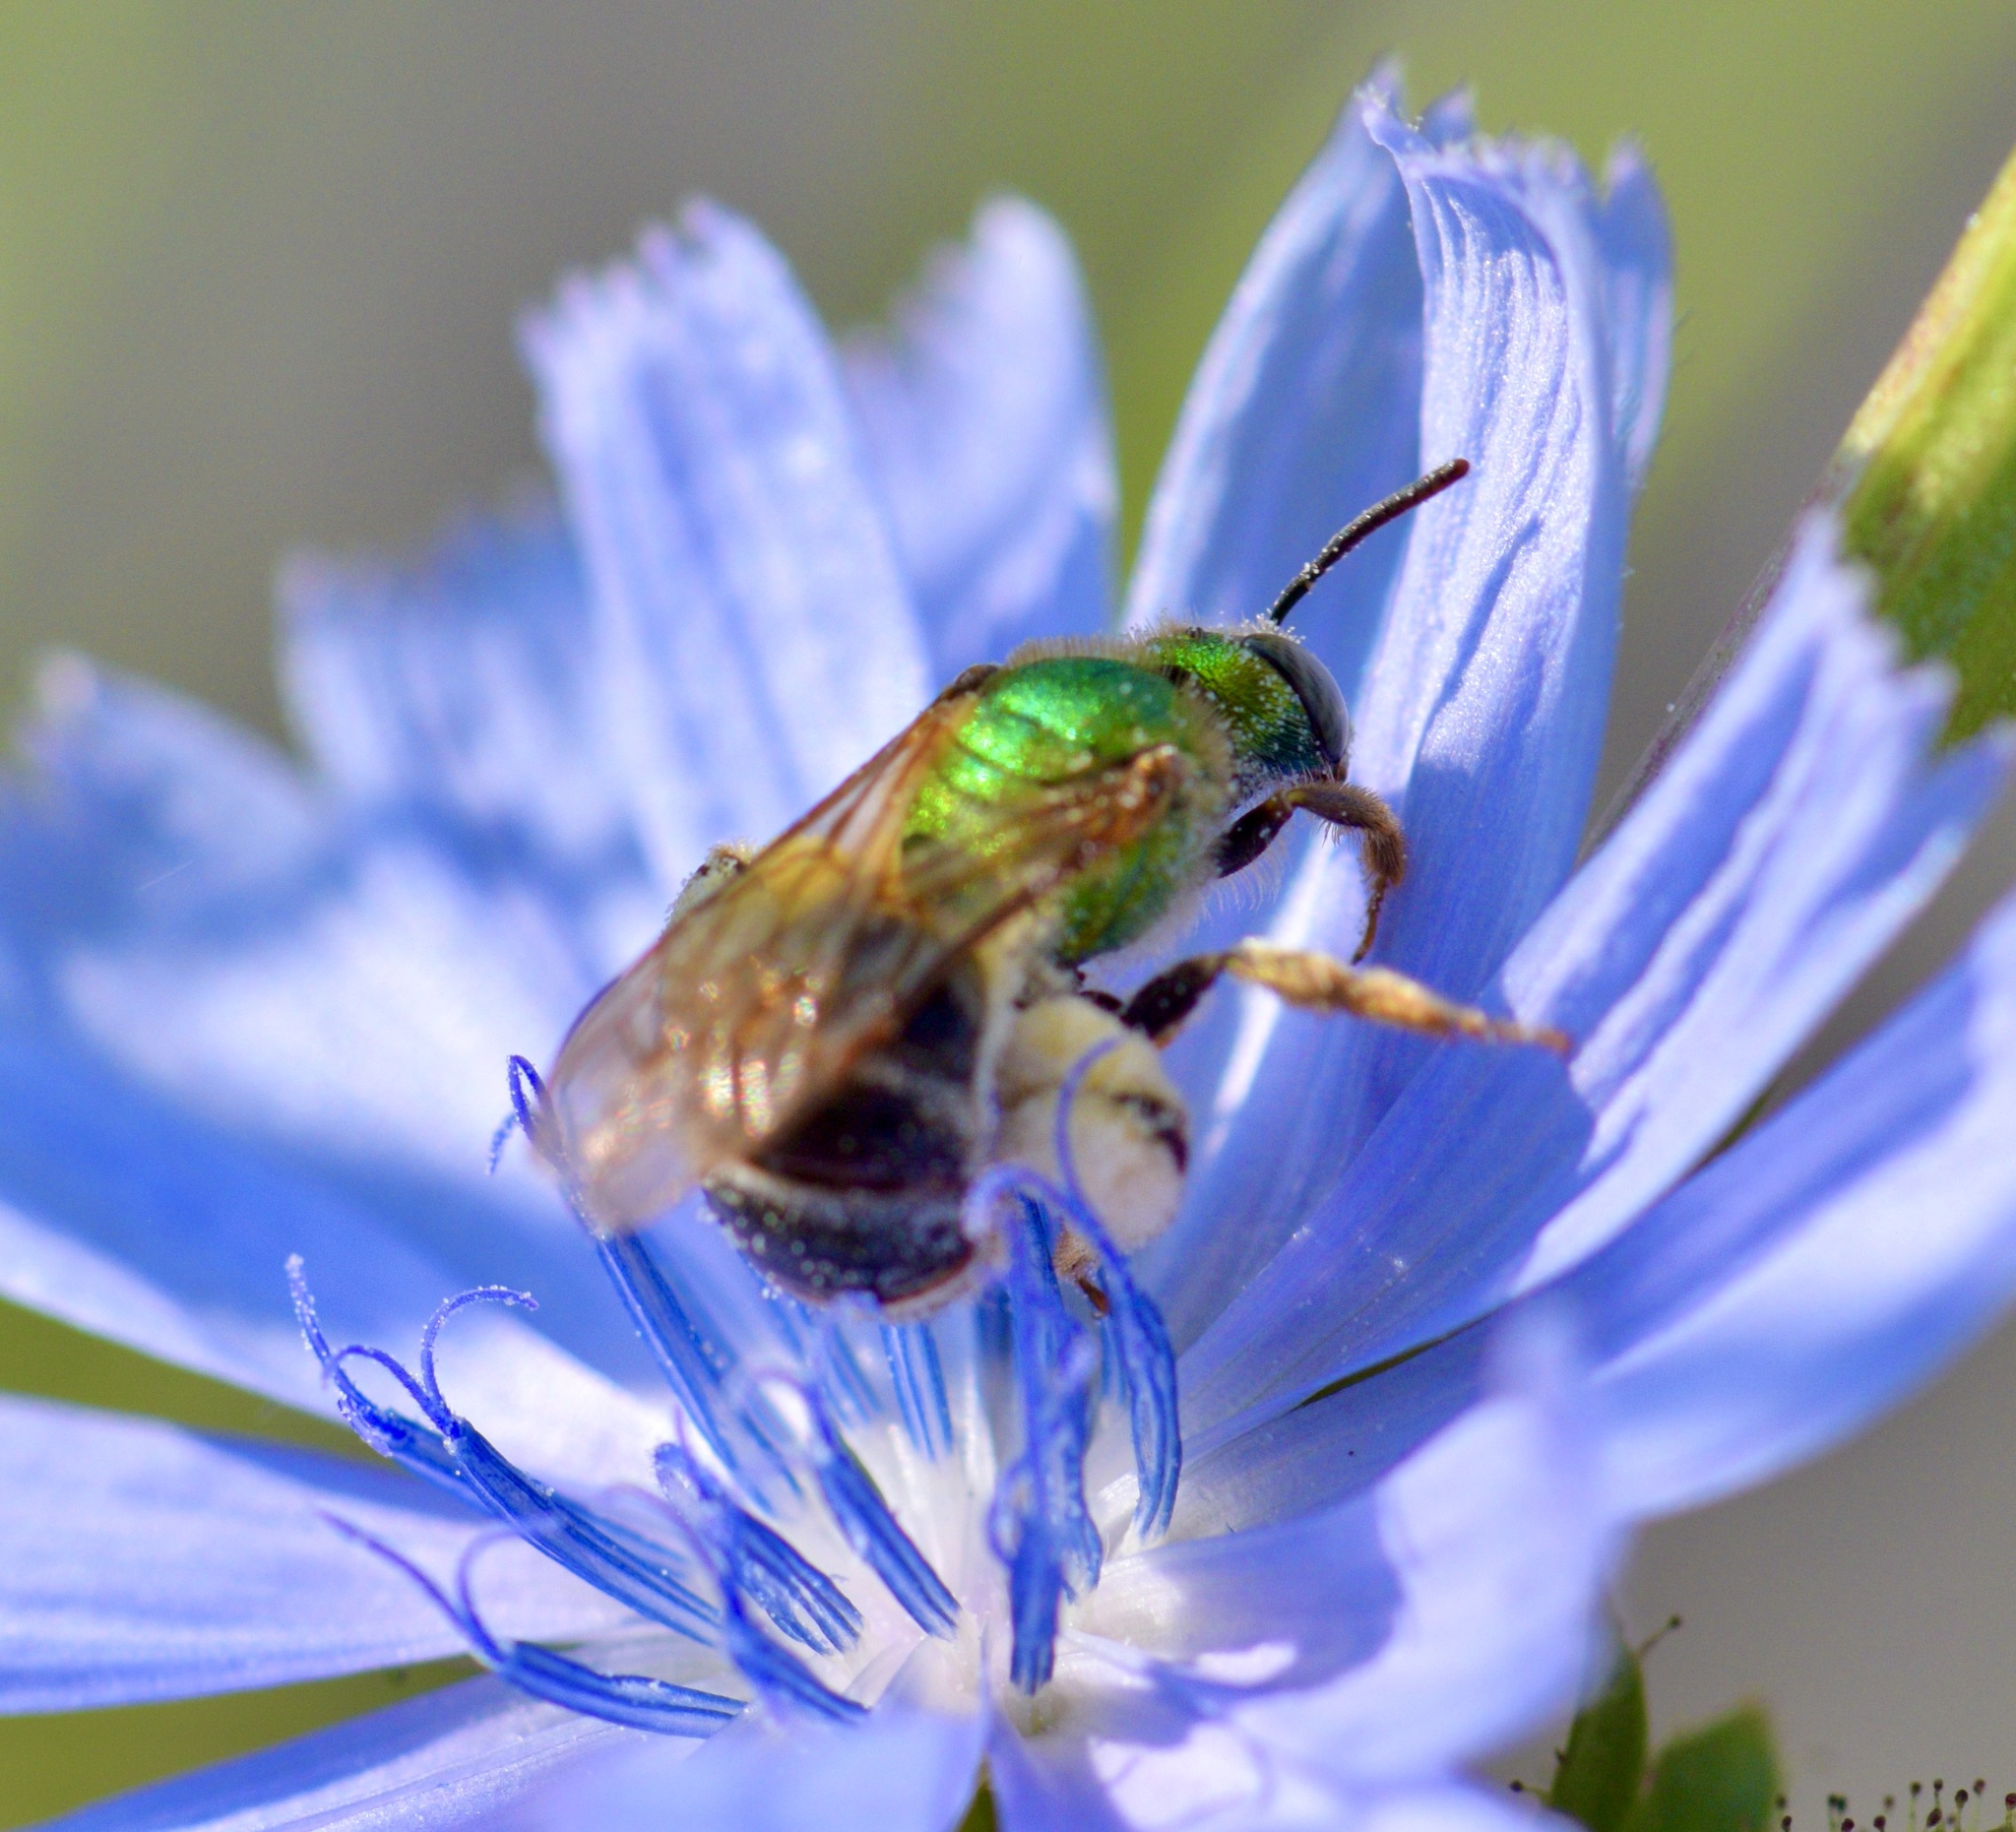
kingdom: Animalia
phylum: Arthropoda
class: Insecta
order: Hymenoptera
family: Halictidae
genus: Agapostemon
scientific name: Agapostemon virescens
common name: Bicolored striped sweat bee
